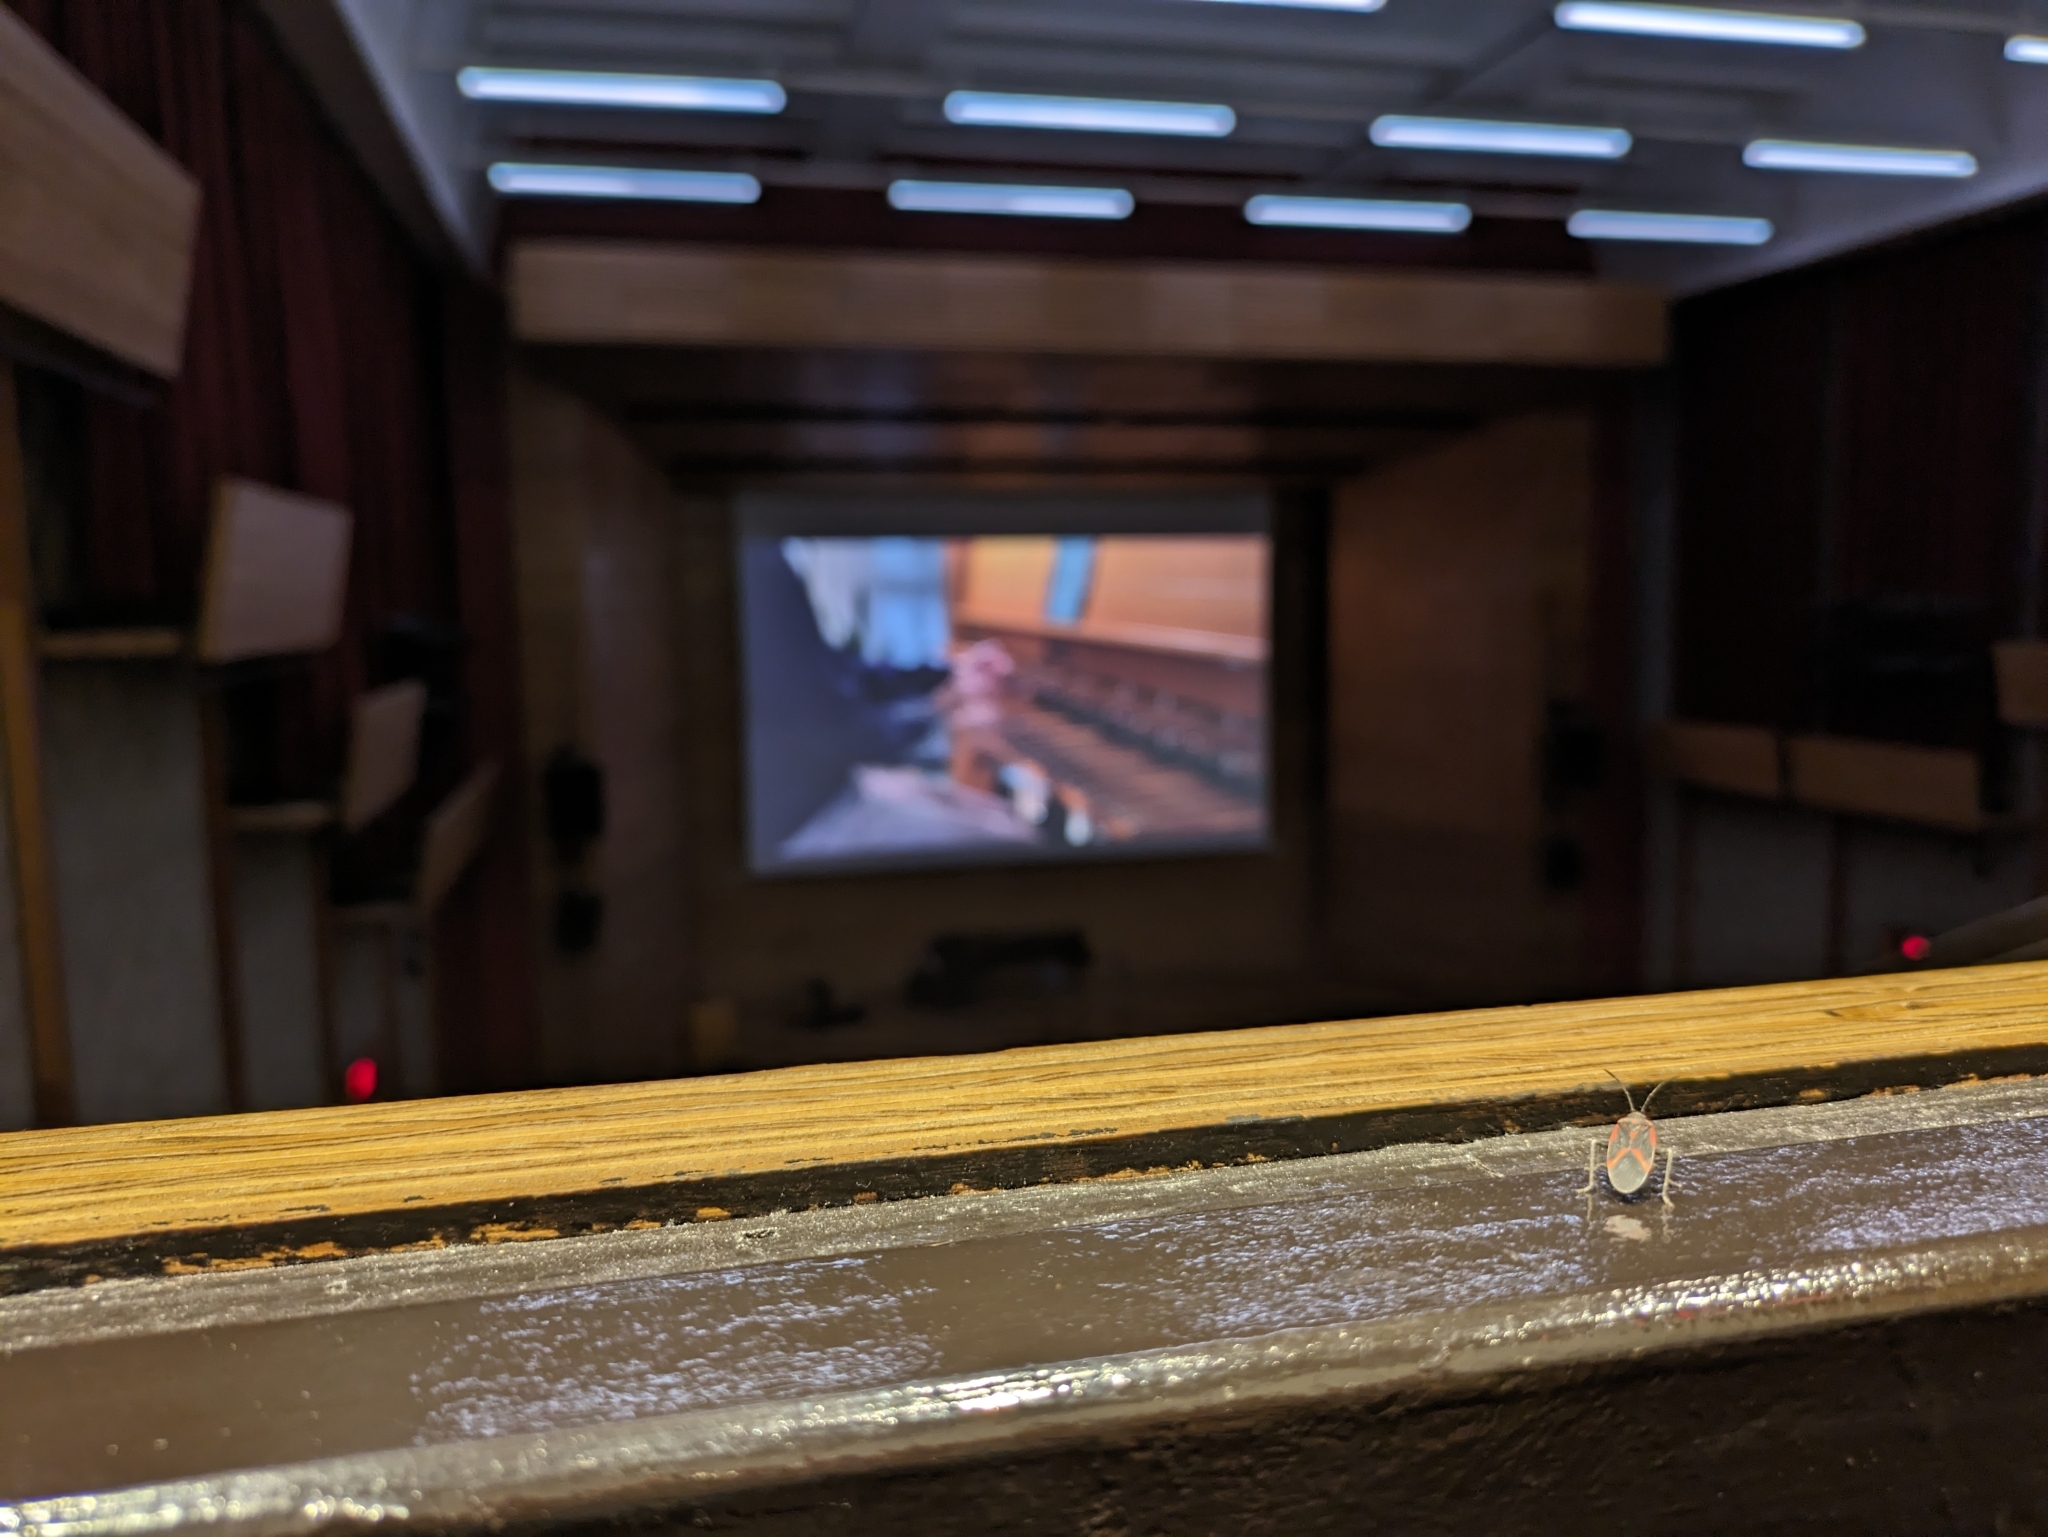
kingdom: Animalia
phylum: Arthropoda
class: Insecta
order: Hemiptera
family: Rhopalidae
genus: Boisea
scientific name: Boisea trivittata
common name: Boxelder bug
